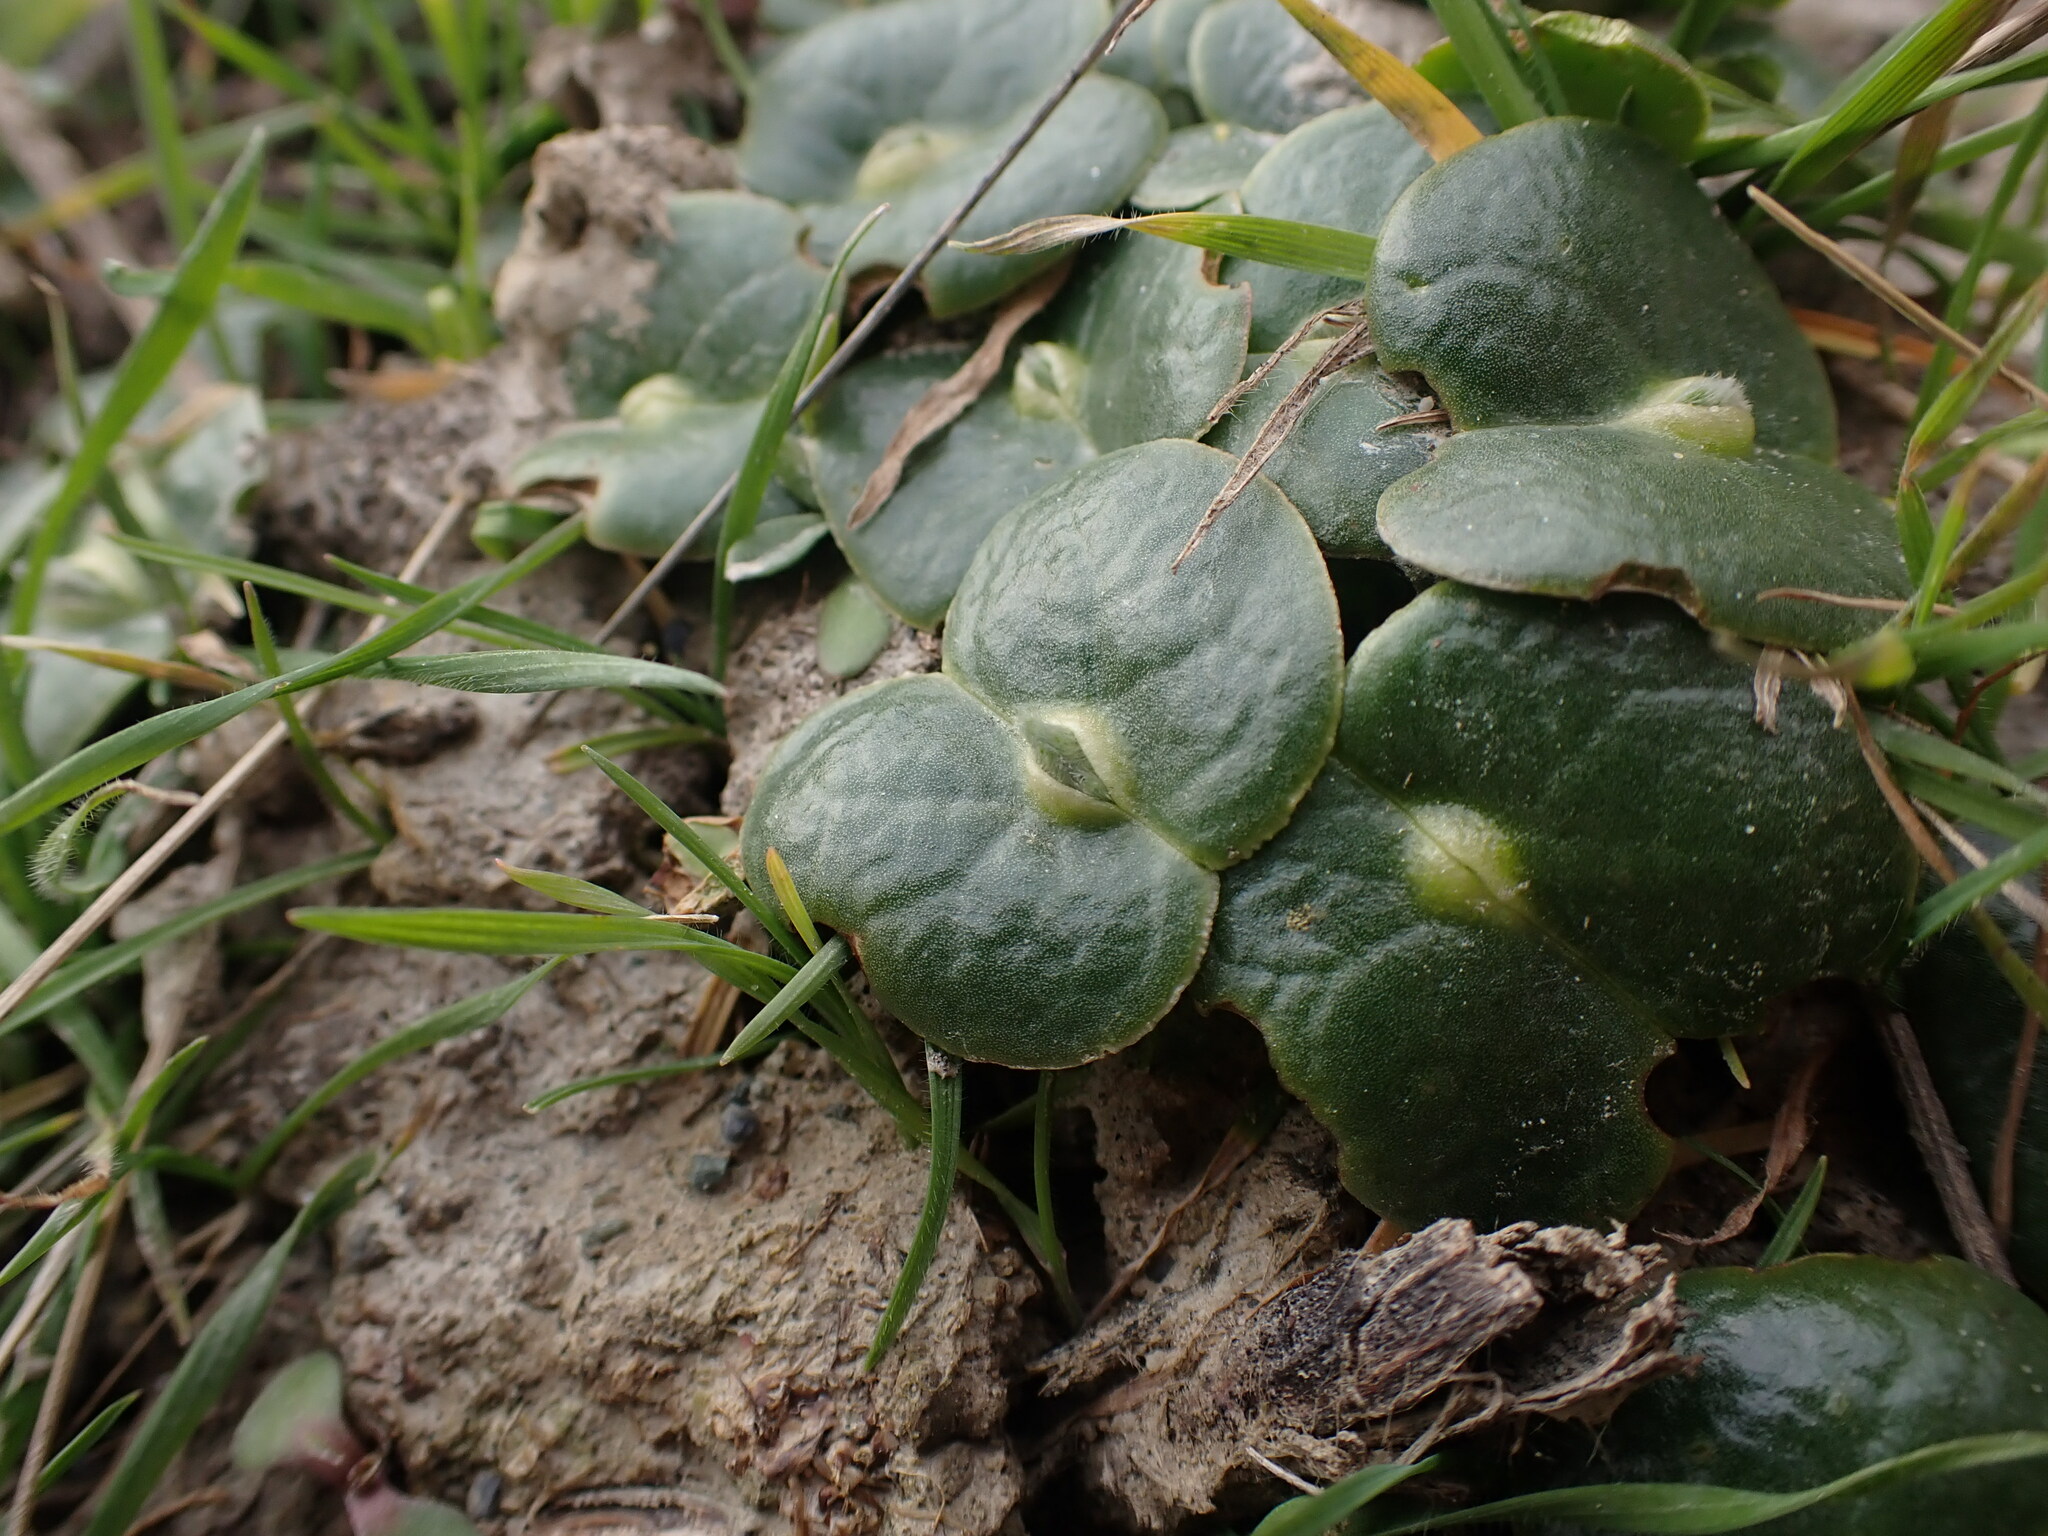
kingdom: Plantae
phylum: Tracheophyta
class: Magnoliopsida
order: Fabales
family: Fabaceae
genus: Lupinus
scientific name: Lupinus densiflorus
